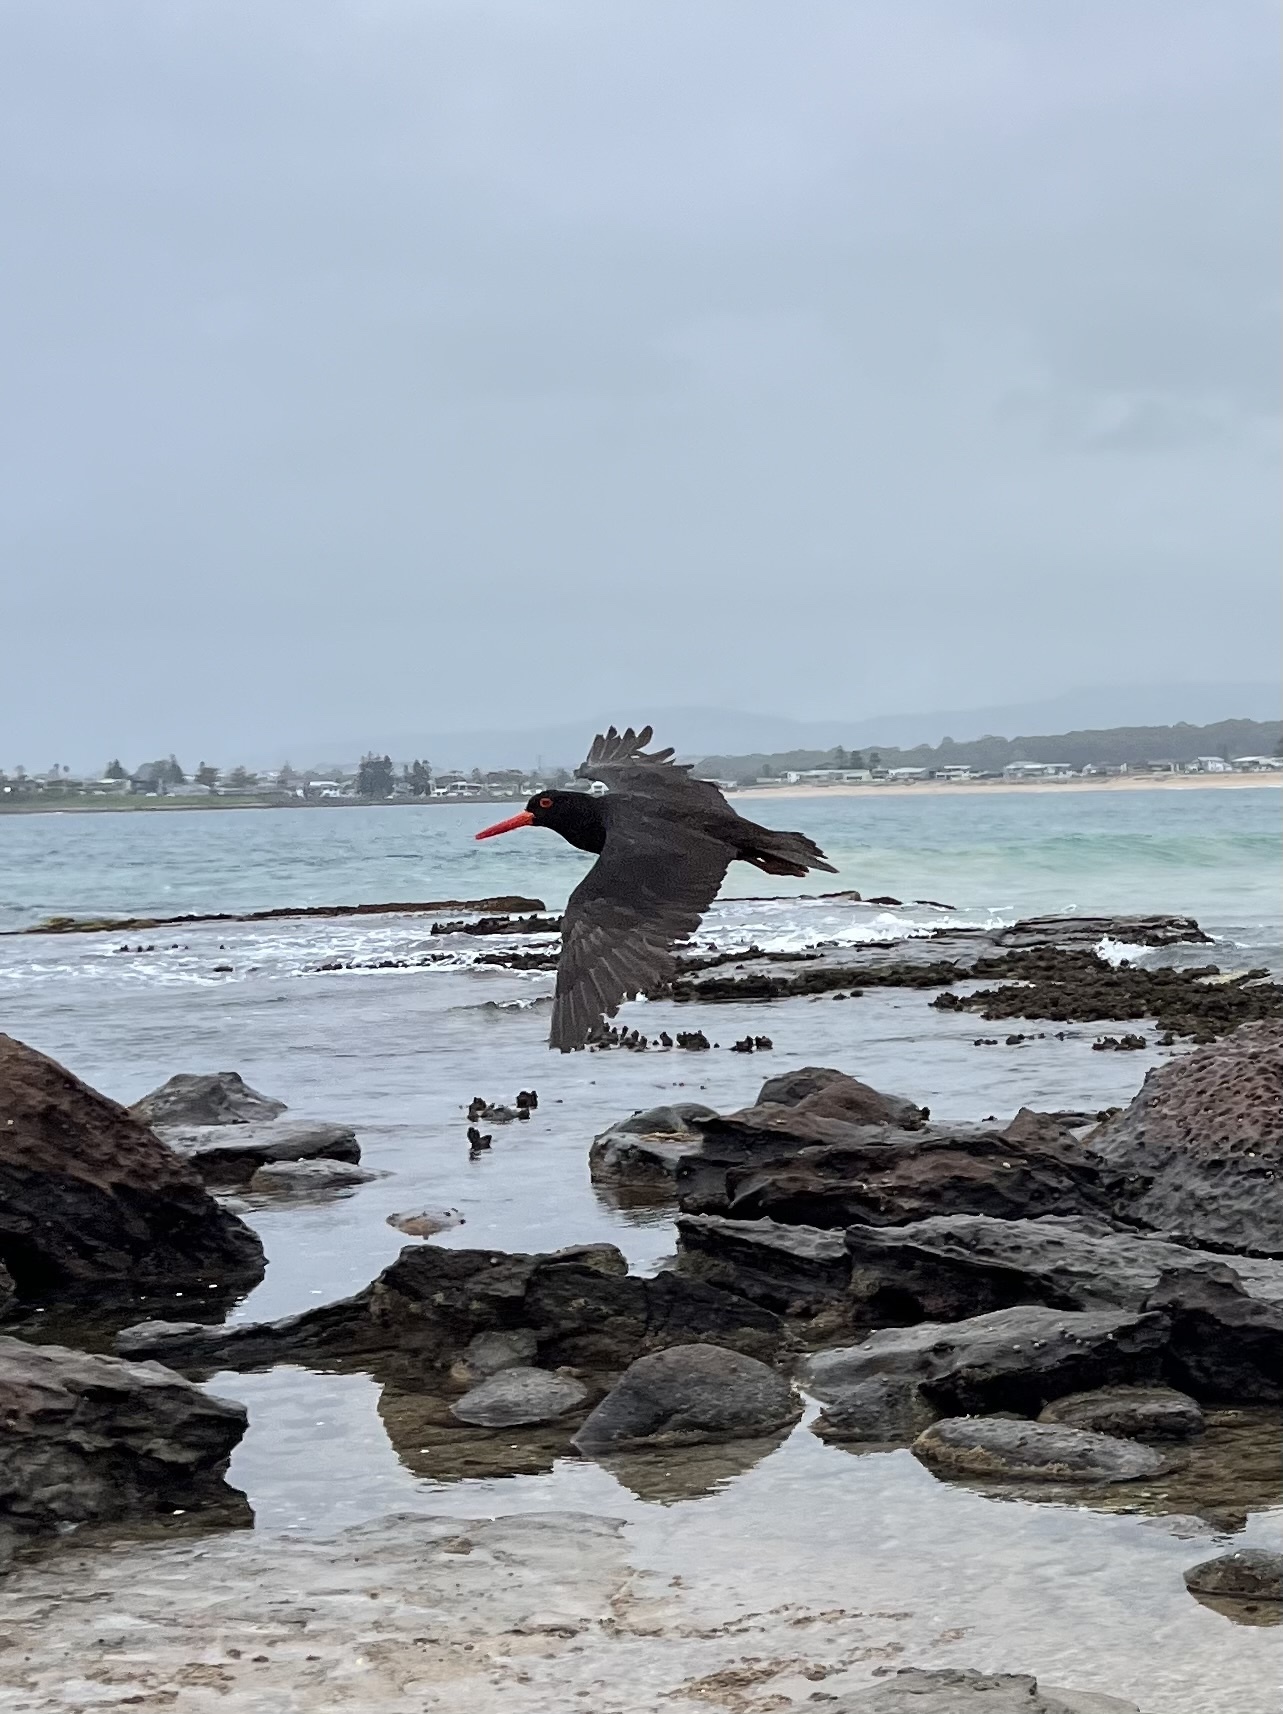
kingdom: Animalia
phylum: Chordata
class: Aves
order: Charadriiformes
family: Haematopodidae
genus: Haematopus
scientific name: Haematopus fuliginosus
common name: Sooty oystercatcher
